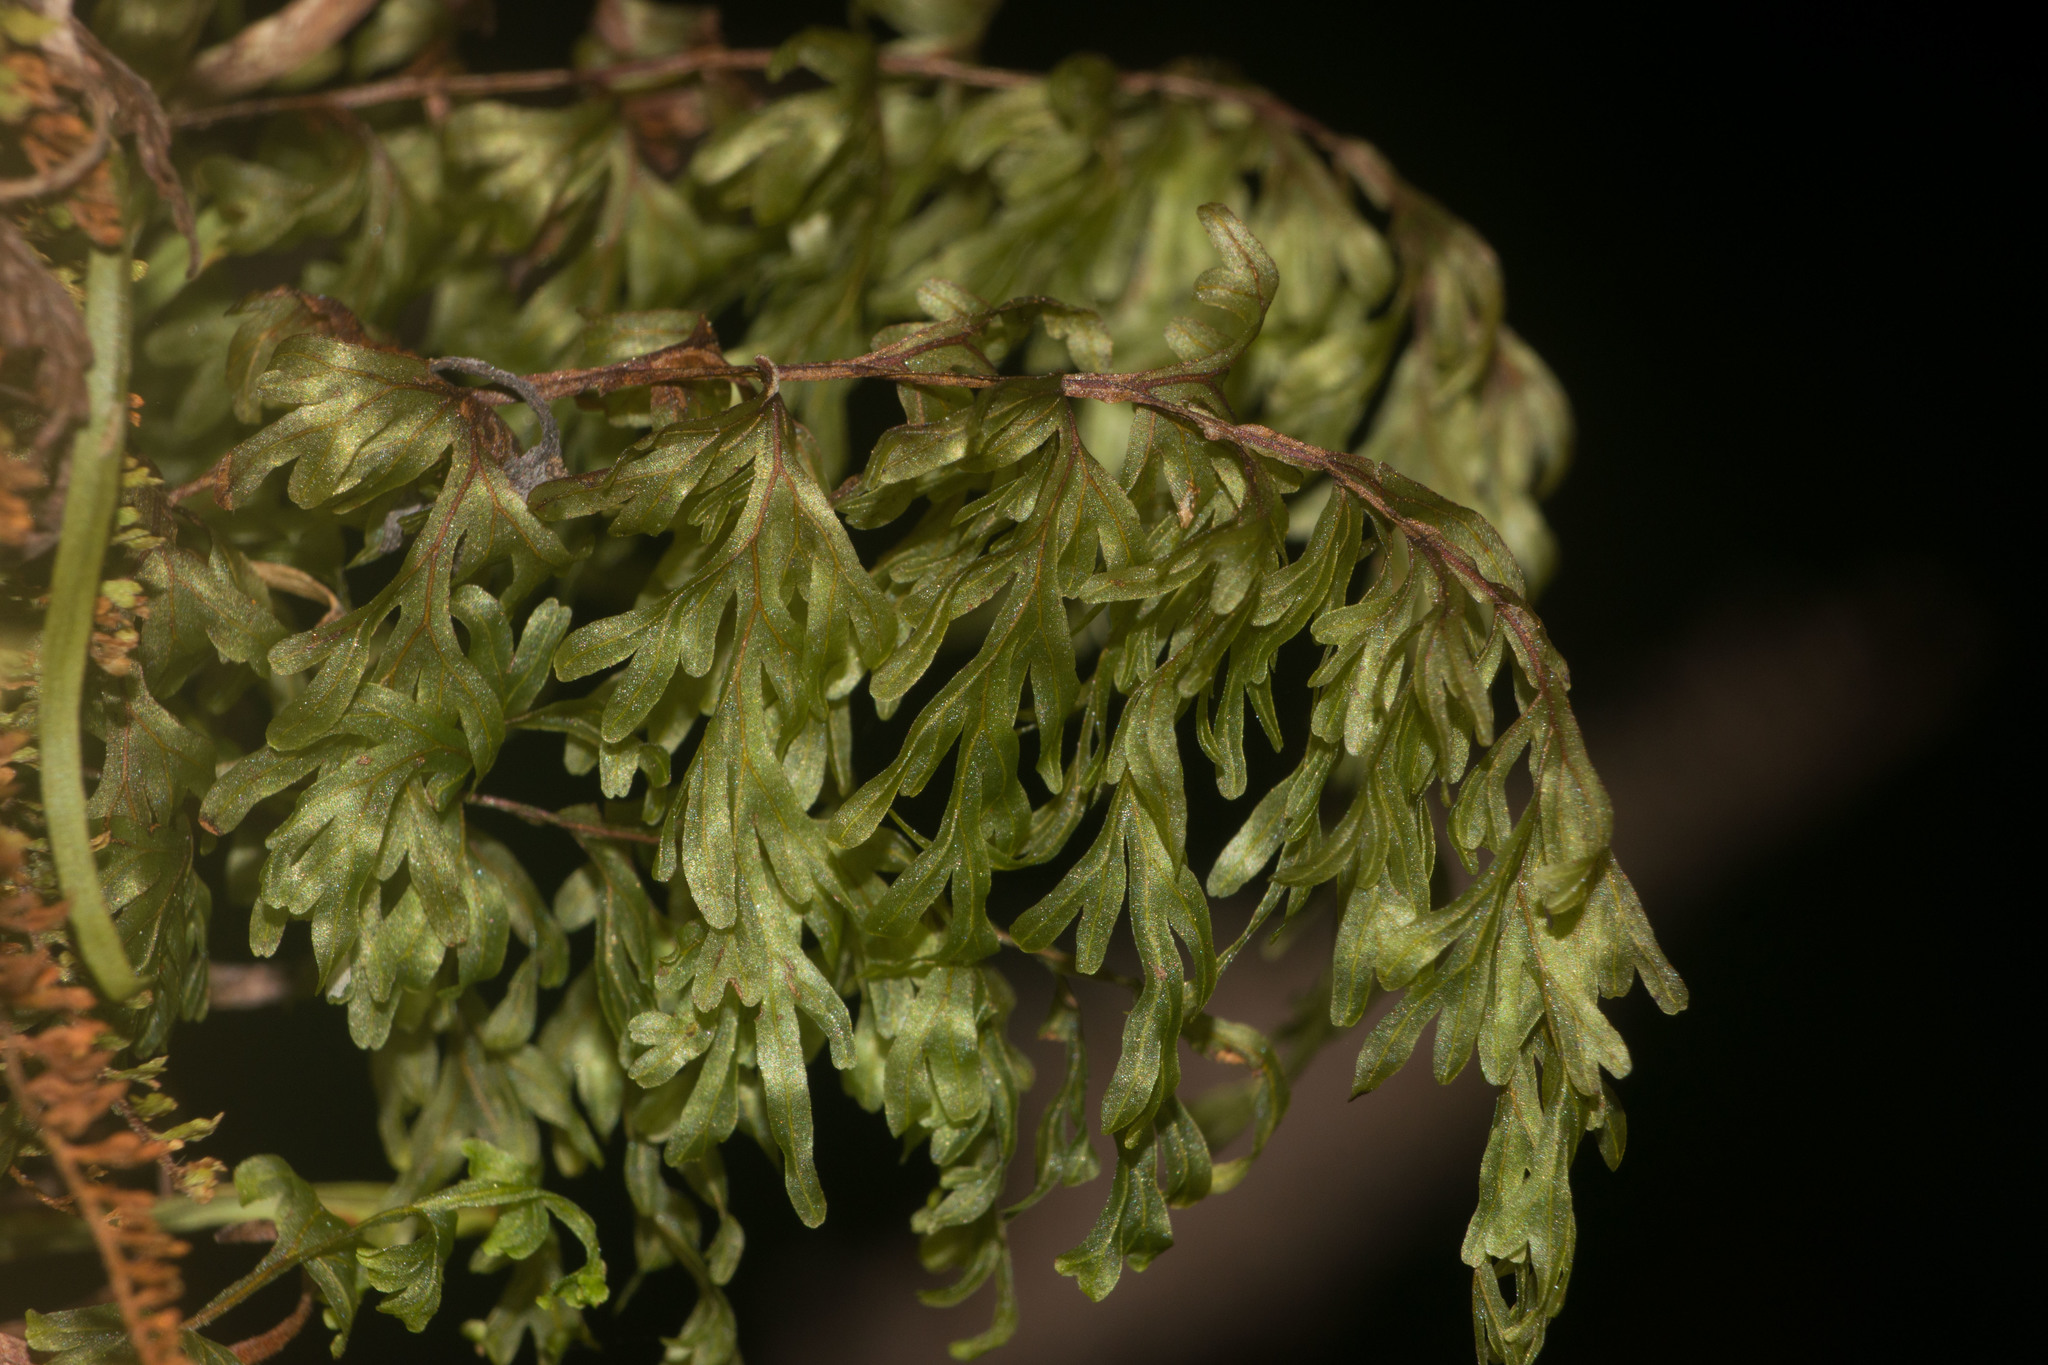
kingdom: Plantae
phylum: Tracheophyta
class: Polypodiopsida
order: Hymenophyllales
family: Hymenophyllaceae
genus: Hymenophyllum
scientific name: Hymenophyllum recurvum
